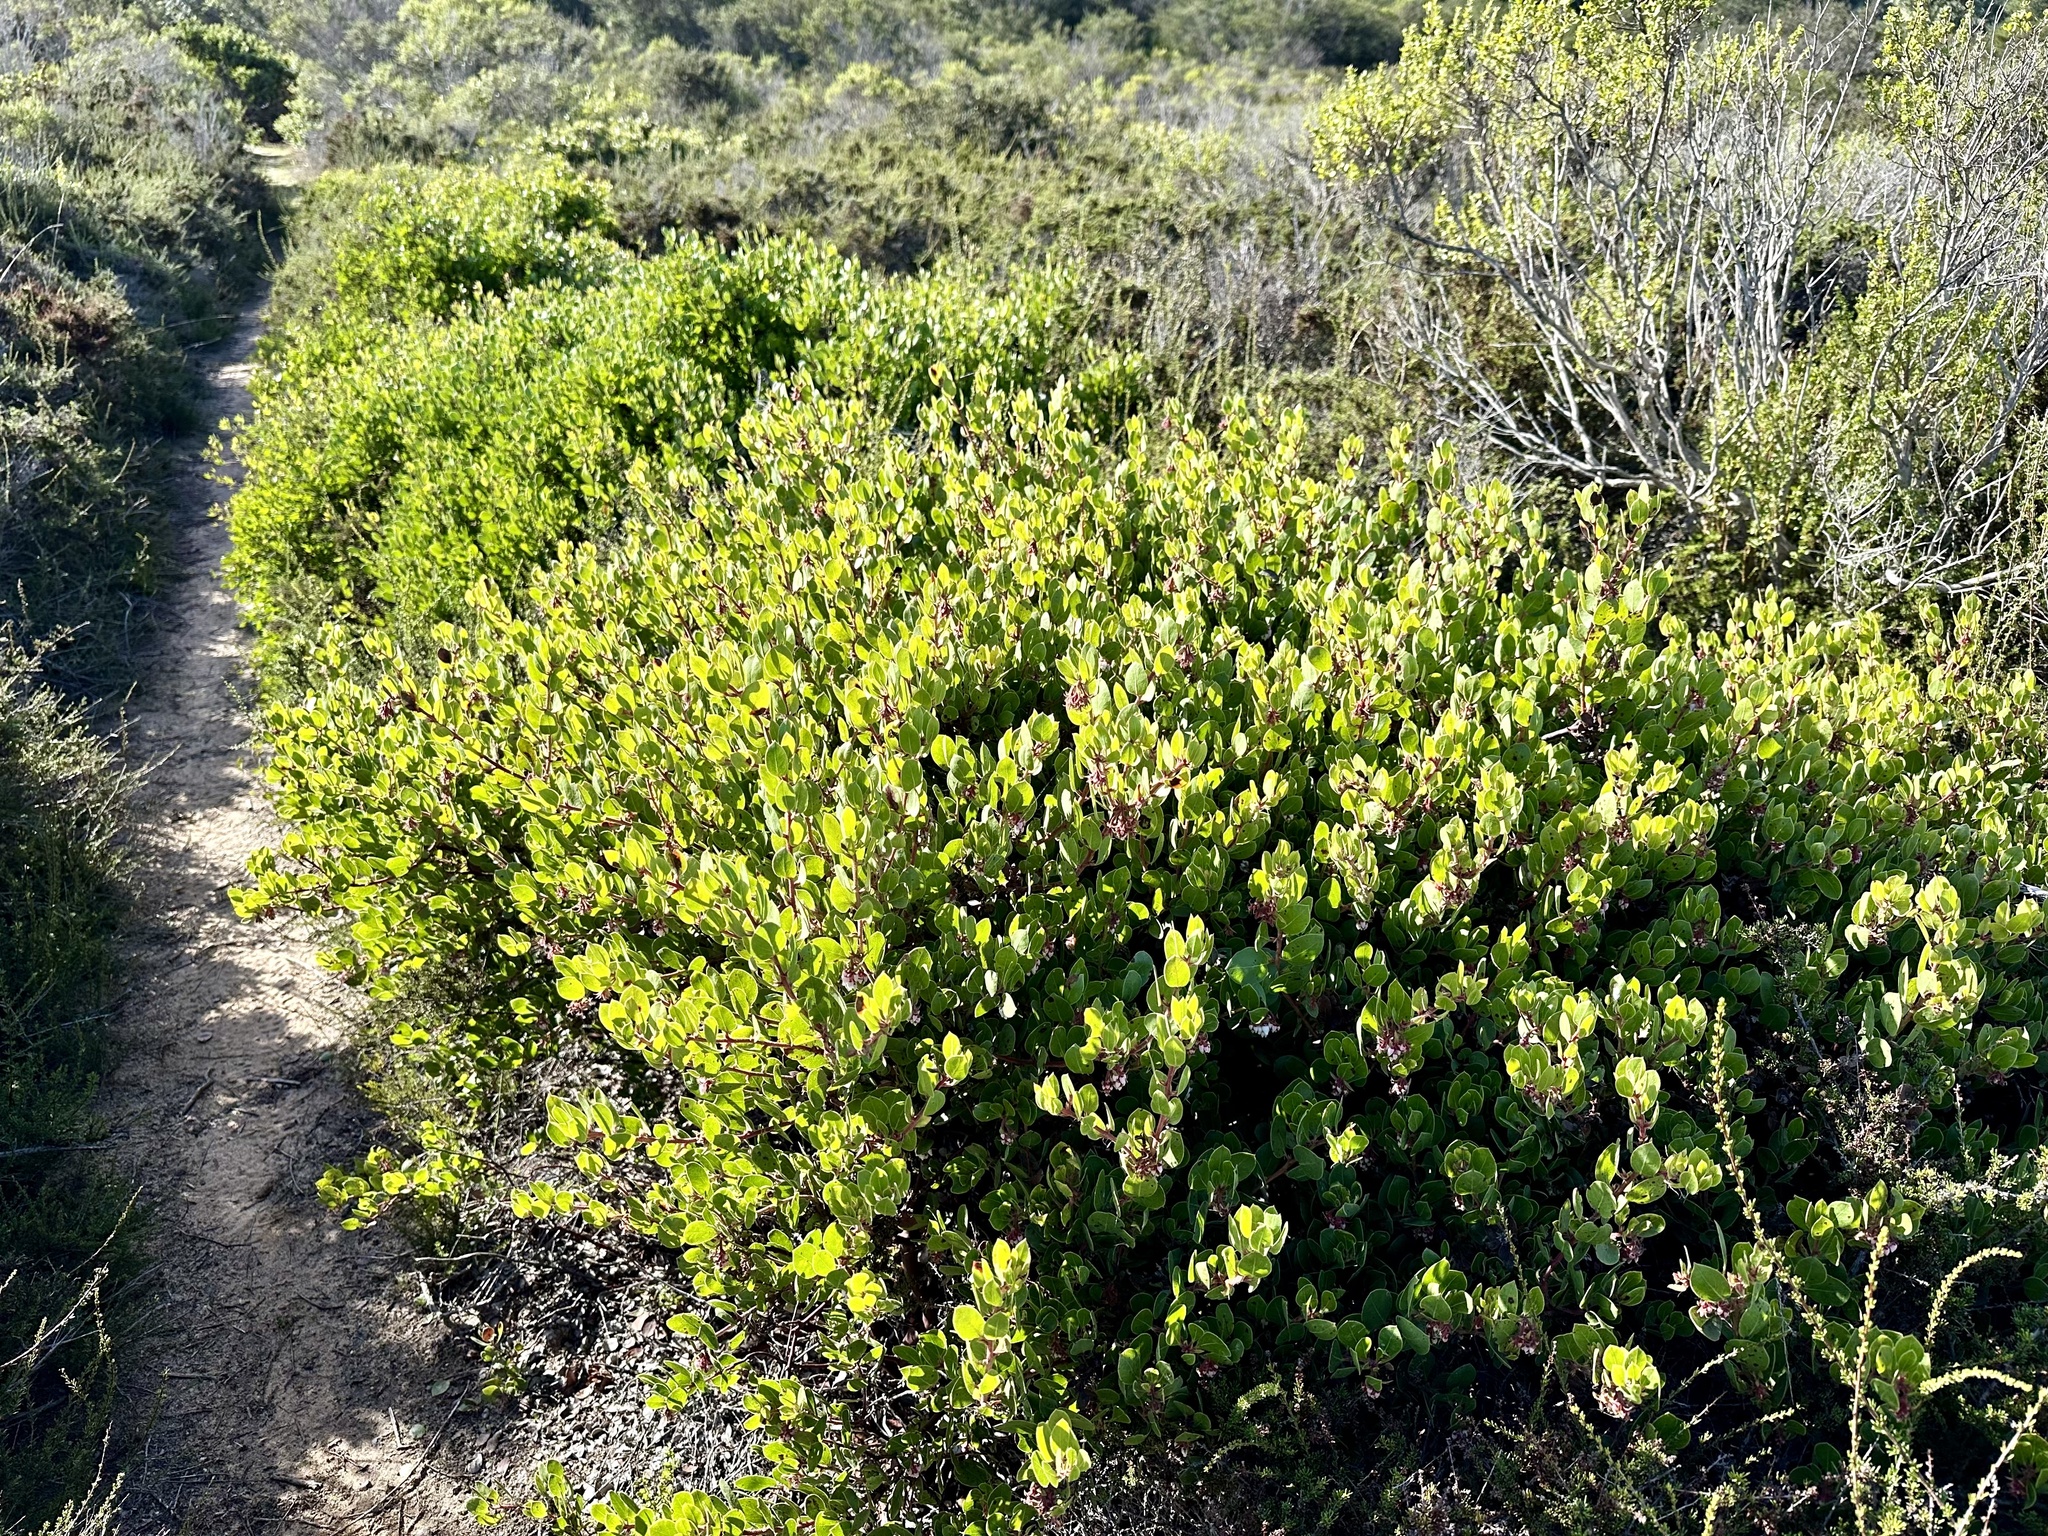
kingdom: Plantae
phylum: Tracheophyta
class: Magnoliopsida
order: Ericales
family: Ericaceae
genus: Arctostaphylos
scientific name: Arctostaphylos montereyensis
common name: Monterey manzanita
